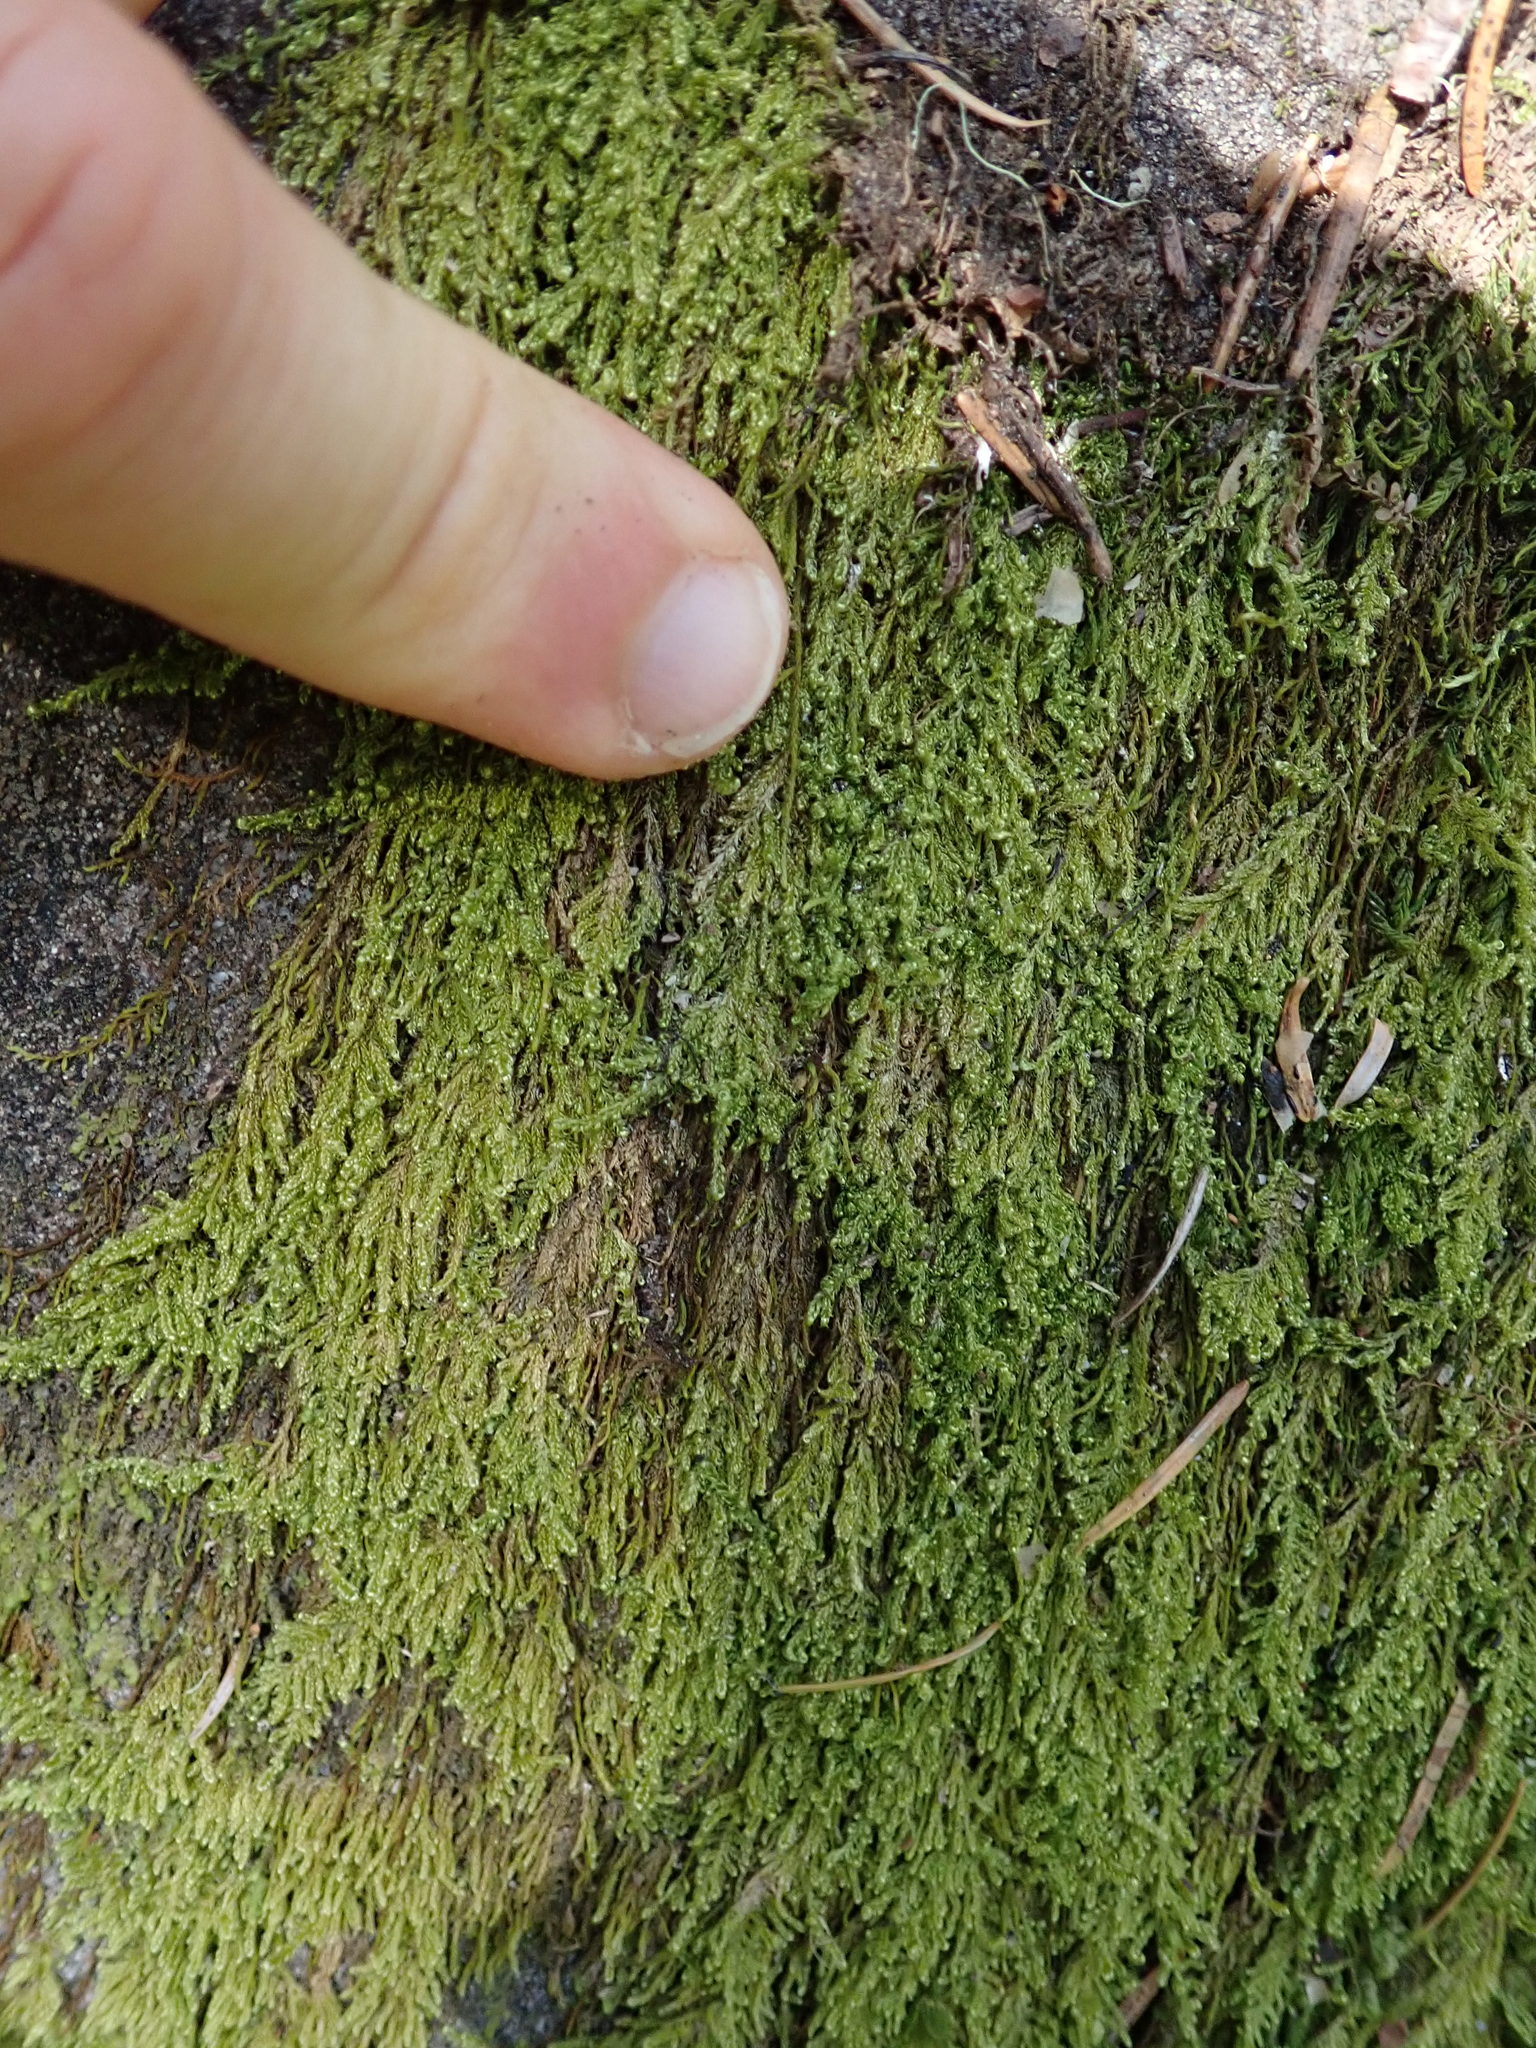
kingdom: Plantae
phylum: Bryophyta
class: Bryopsida
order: Hypnales
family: Stereodontaceae
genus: Stereodon
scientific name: Stereodon subimponens
